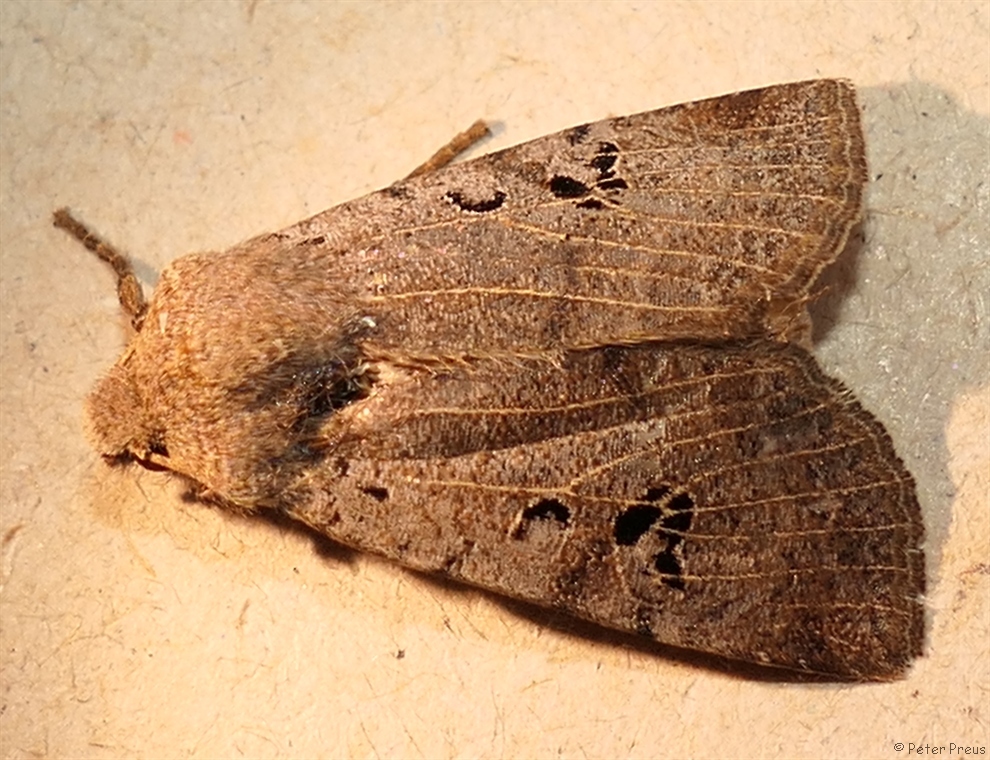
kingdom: Animalia
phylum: Arthropoda
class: Insecta
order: Lepidoptera
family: Noctuidae
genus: Conistra
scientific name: Conistra rubiginosa
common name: Black-spotted chestnut
